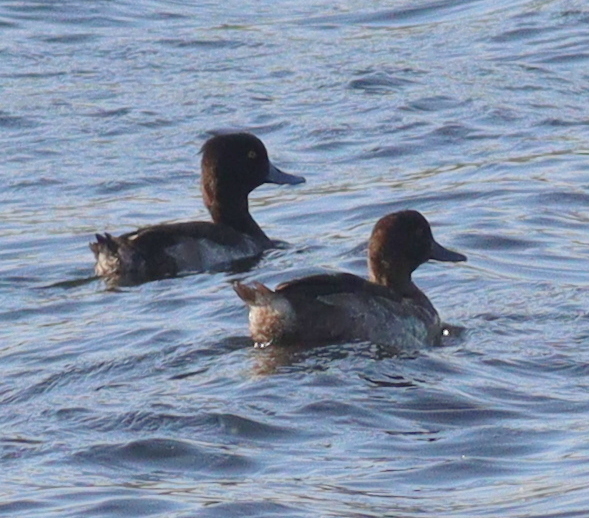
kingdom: Animalia
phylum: Chordata
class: Aves
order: Anseriformes
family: Anatidae
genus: Aythya
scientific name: Aythya fuligula
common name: Tufted duck
